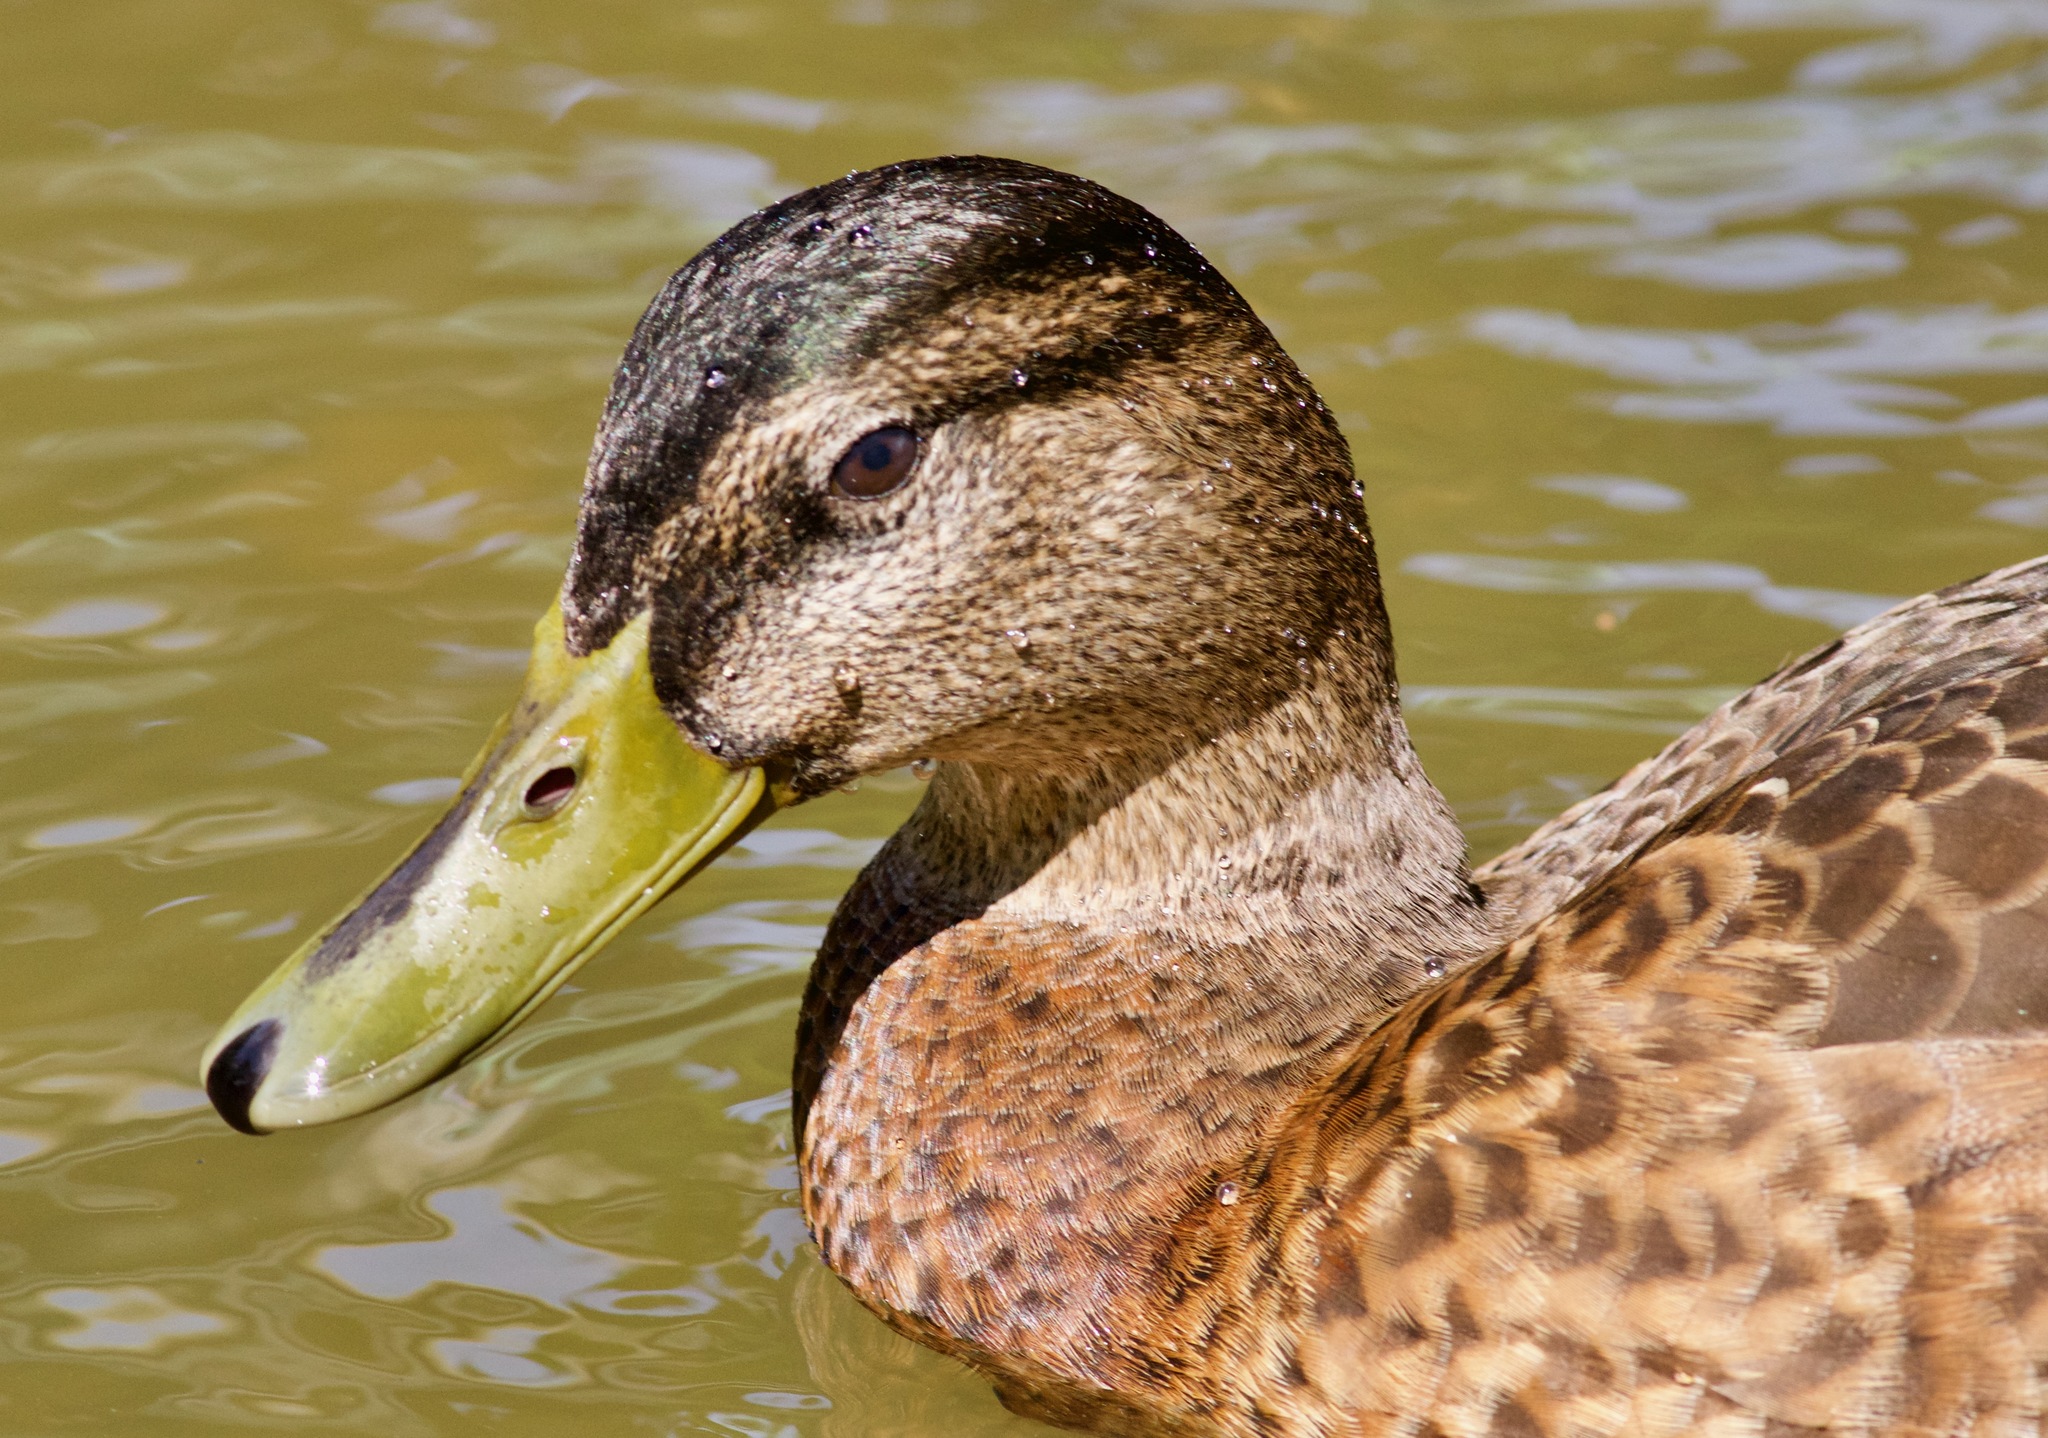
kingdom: Animalia
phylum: Chordata
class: Aves
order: Anseriformes
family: Anatidae
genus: Anas
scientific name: Anas platyrhynchos
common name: Mallard
